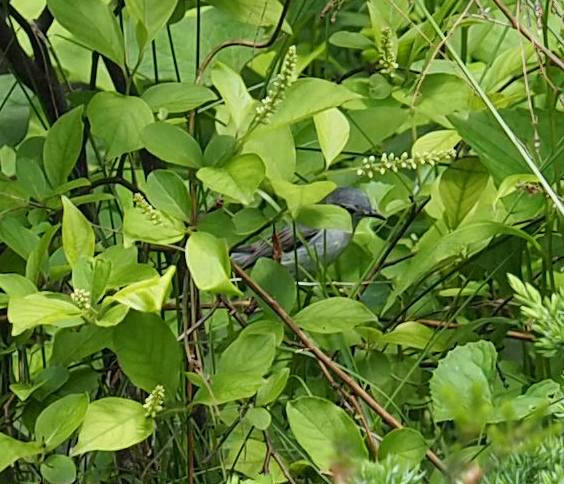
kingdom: Animalia
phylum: Chordata
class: Aves
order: Passeriformes
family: Polioptilidae
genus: Polioptila
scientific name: Polioptila caerulea
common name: Blue-gray gnatcatcher
